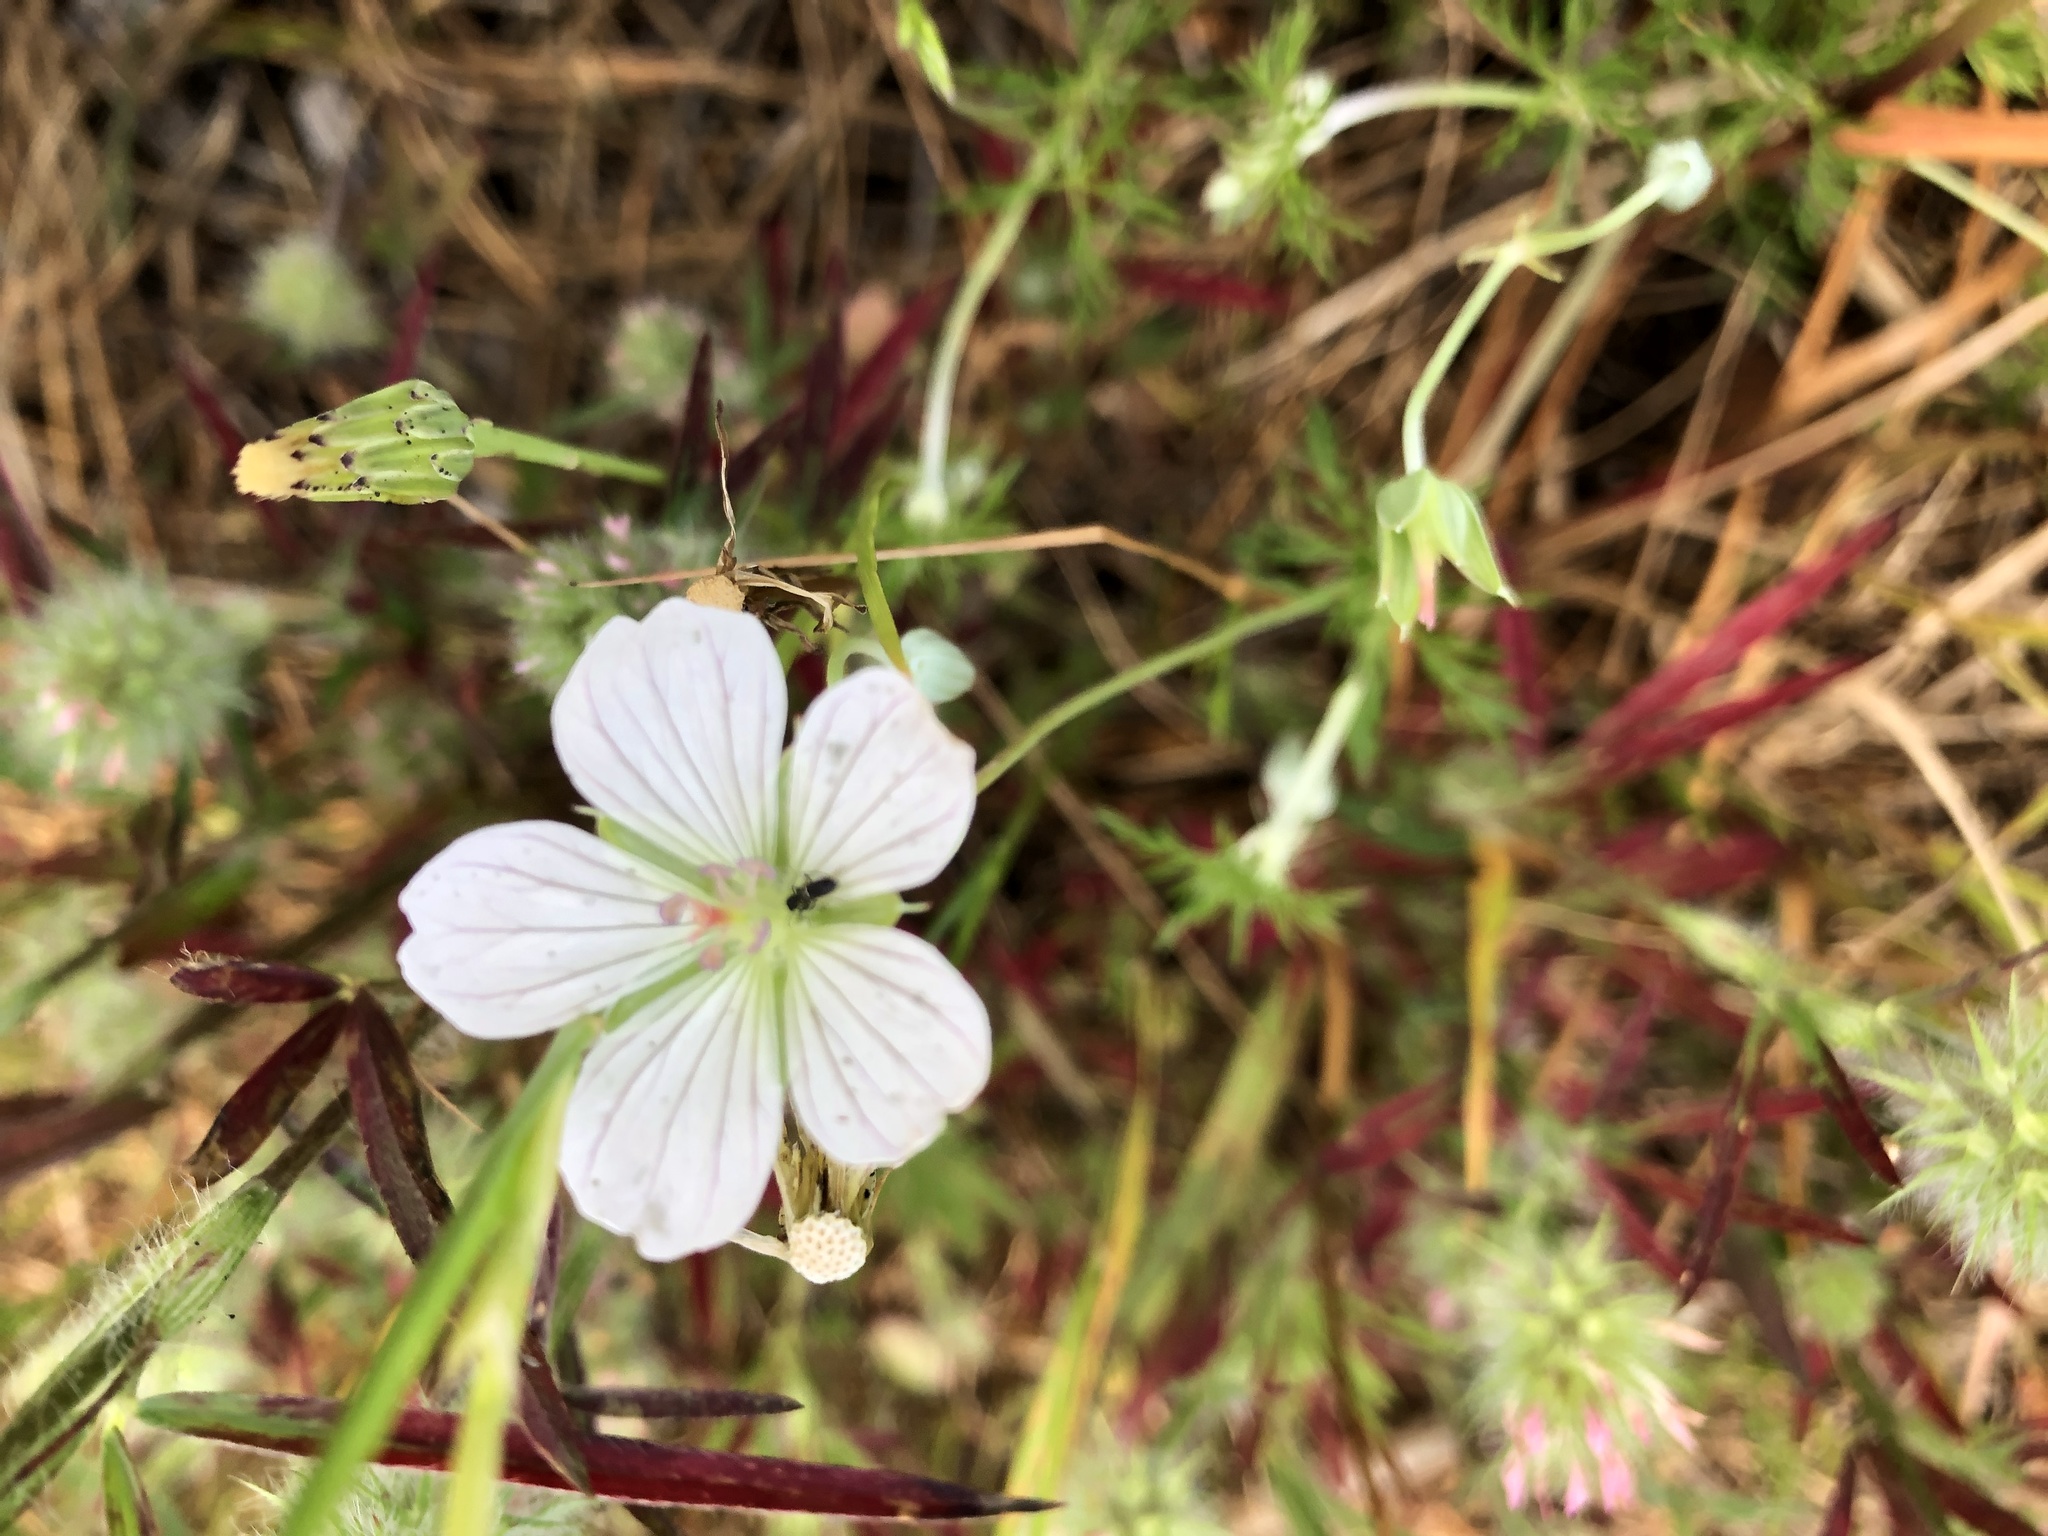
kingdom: Plantae
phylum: Tracheophyta
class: Magnoliopsida
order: Geraniales
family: Geraniaceae
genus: Geranium
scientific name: Geranium incanum
